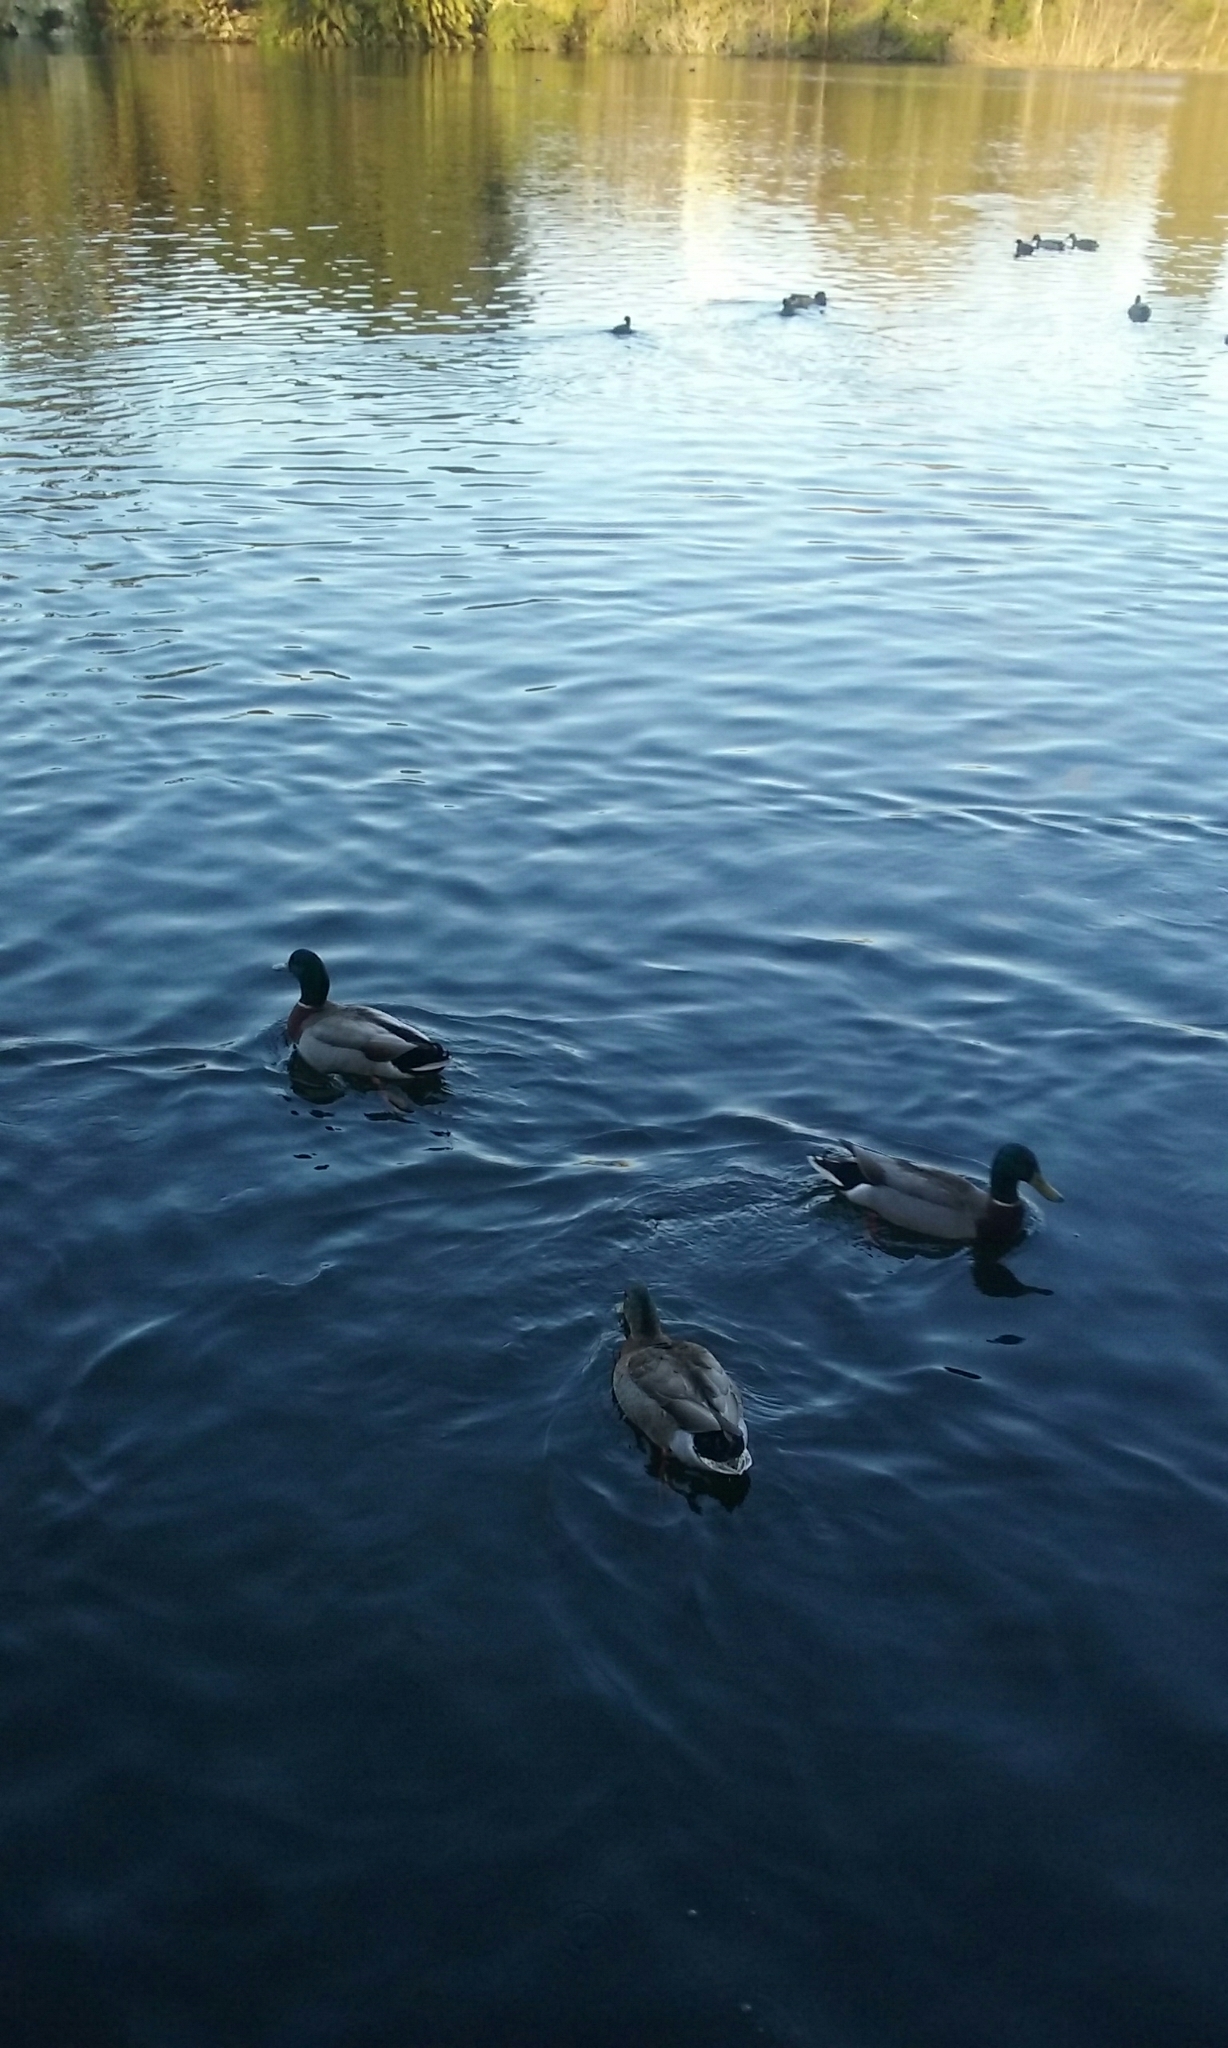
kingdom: Animalia
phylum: Chordata
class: Aves
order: Anseriformes
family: Anatidae
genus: Anas
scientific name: Anas platyrhynchos
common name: Mallard
